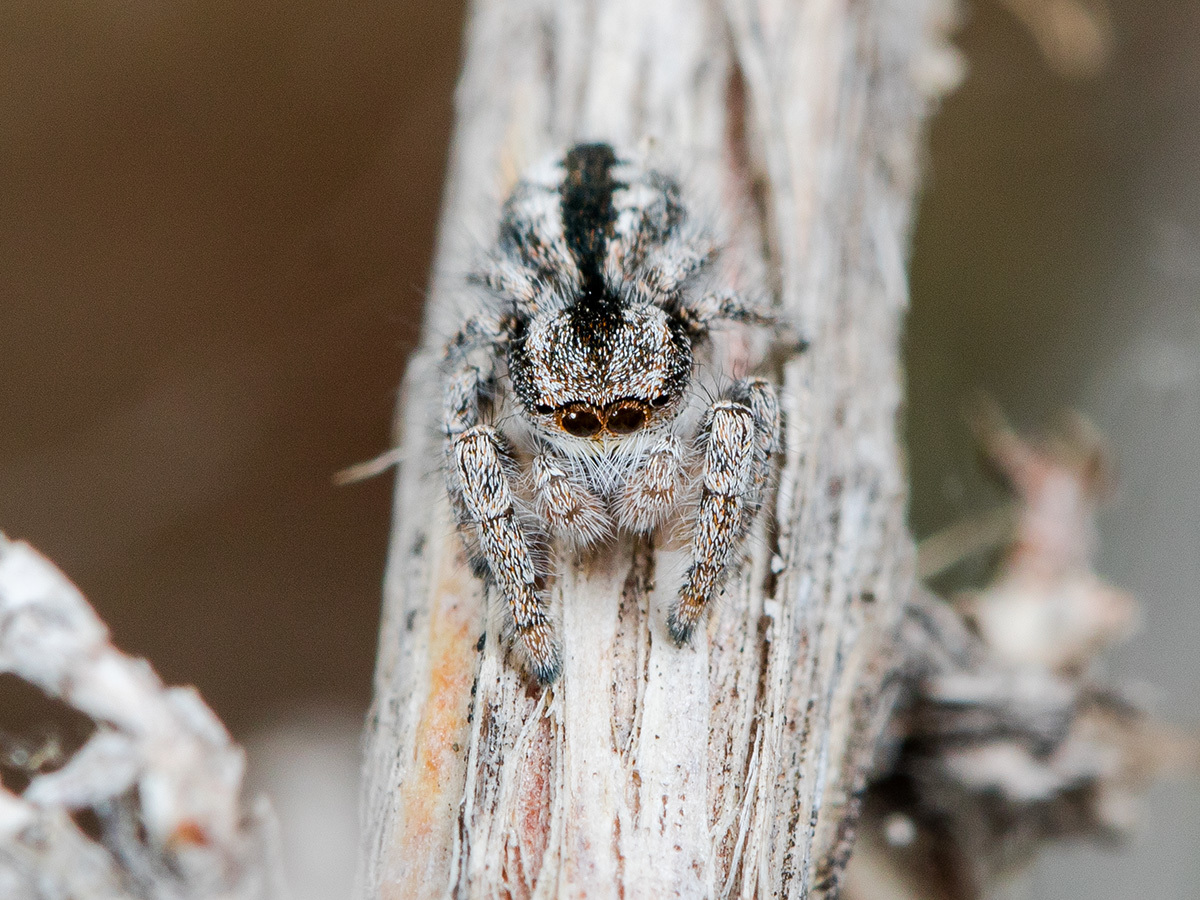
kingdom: Animalia
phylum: Arthropoda
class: Arachnida
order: Araneae
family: Salticidae
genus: Pseudomogrus
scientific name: Pseudomogrus vittatus
